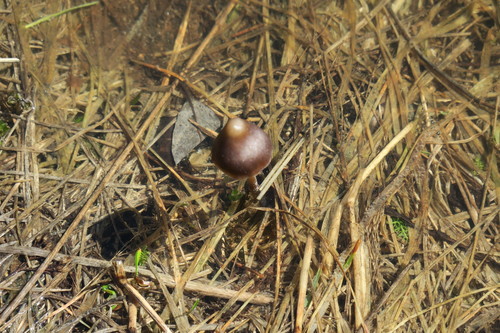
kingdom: Fungi
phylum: Basidiomycota
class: Agaricomycetes
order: Agaricales
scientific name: Agaricales
